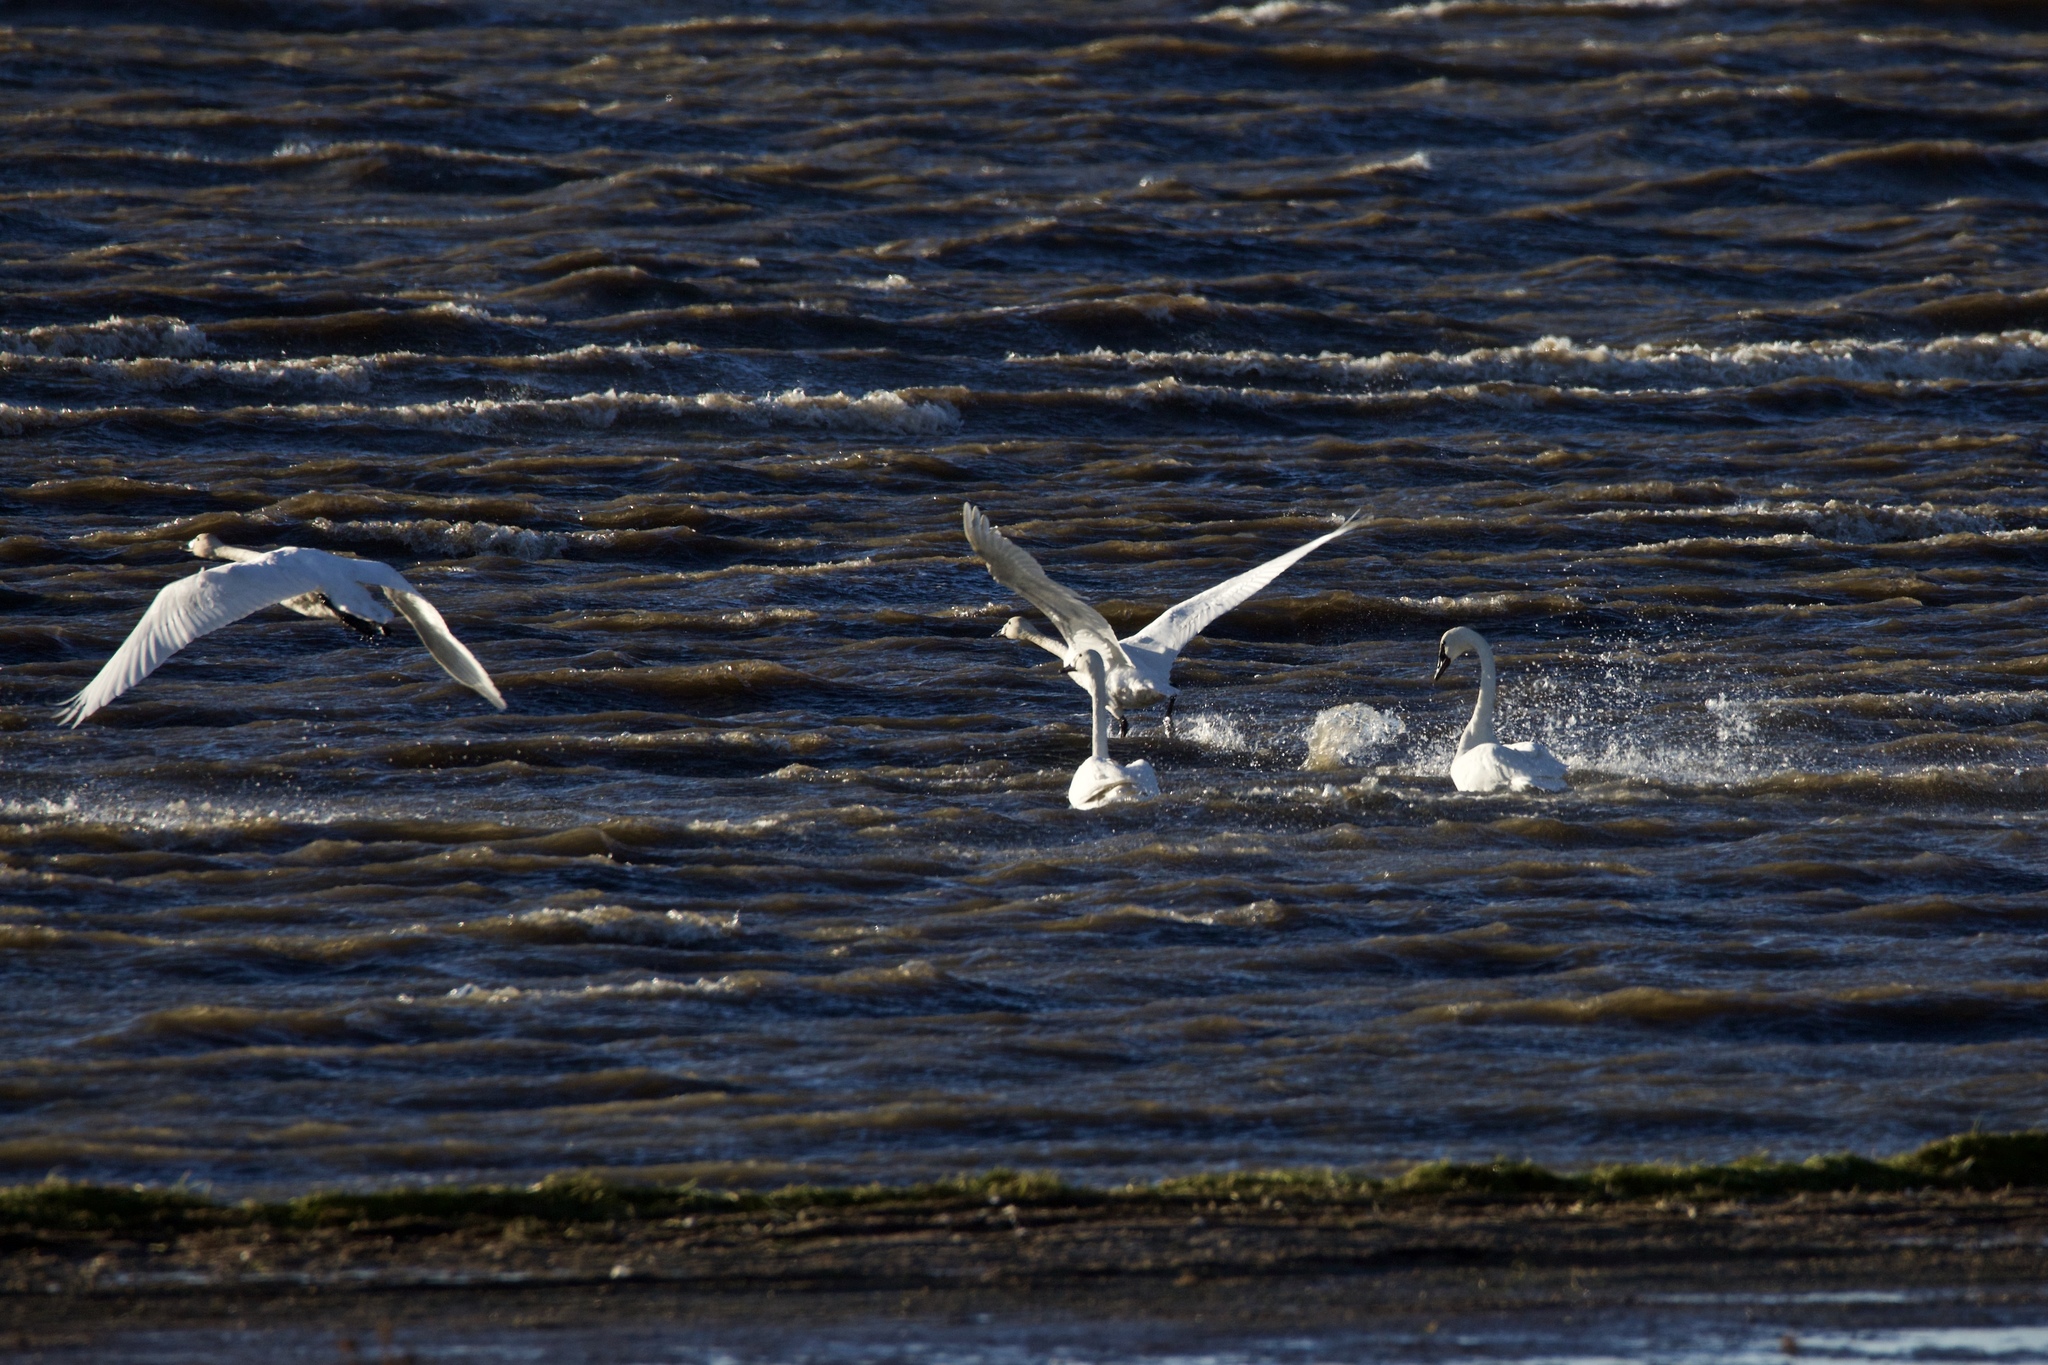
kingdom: Animalia
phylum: Chordata
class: Aves
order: Anseriformes
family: Anatidae
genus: Cygnus
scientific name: Cygnus columbianus
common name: Tundra swan
